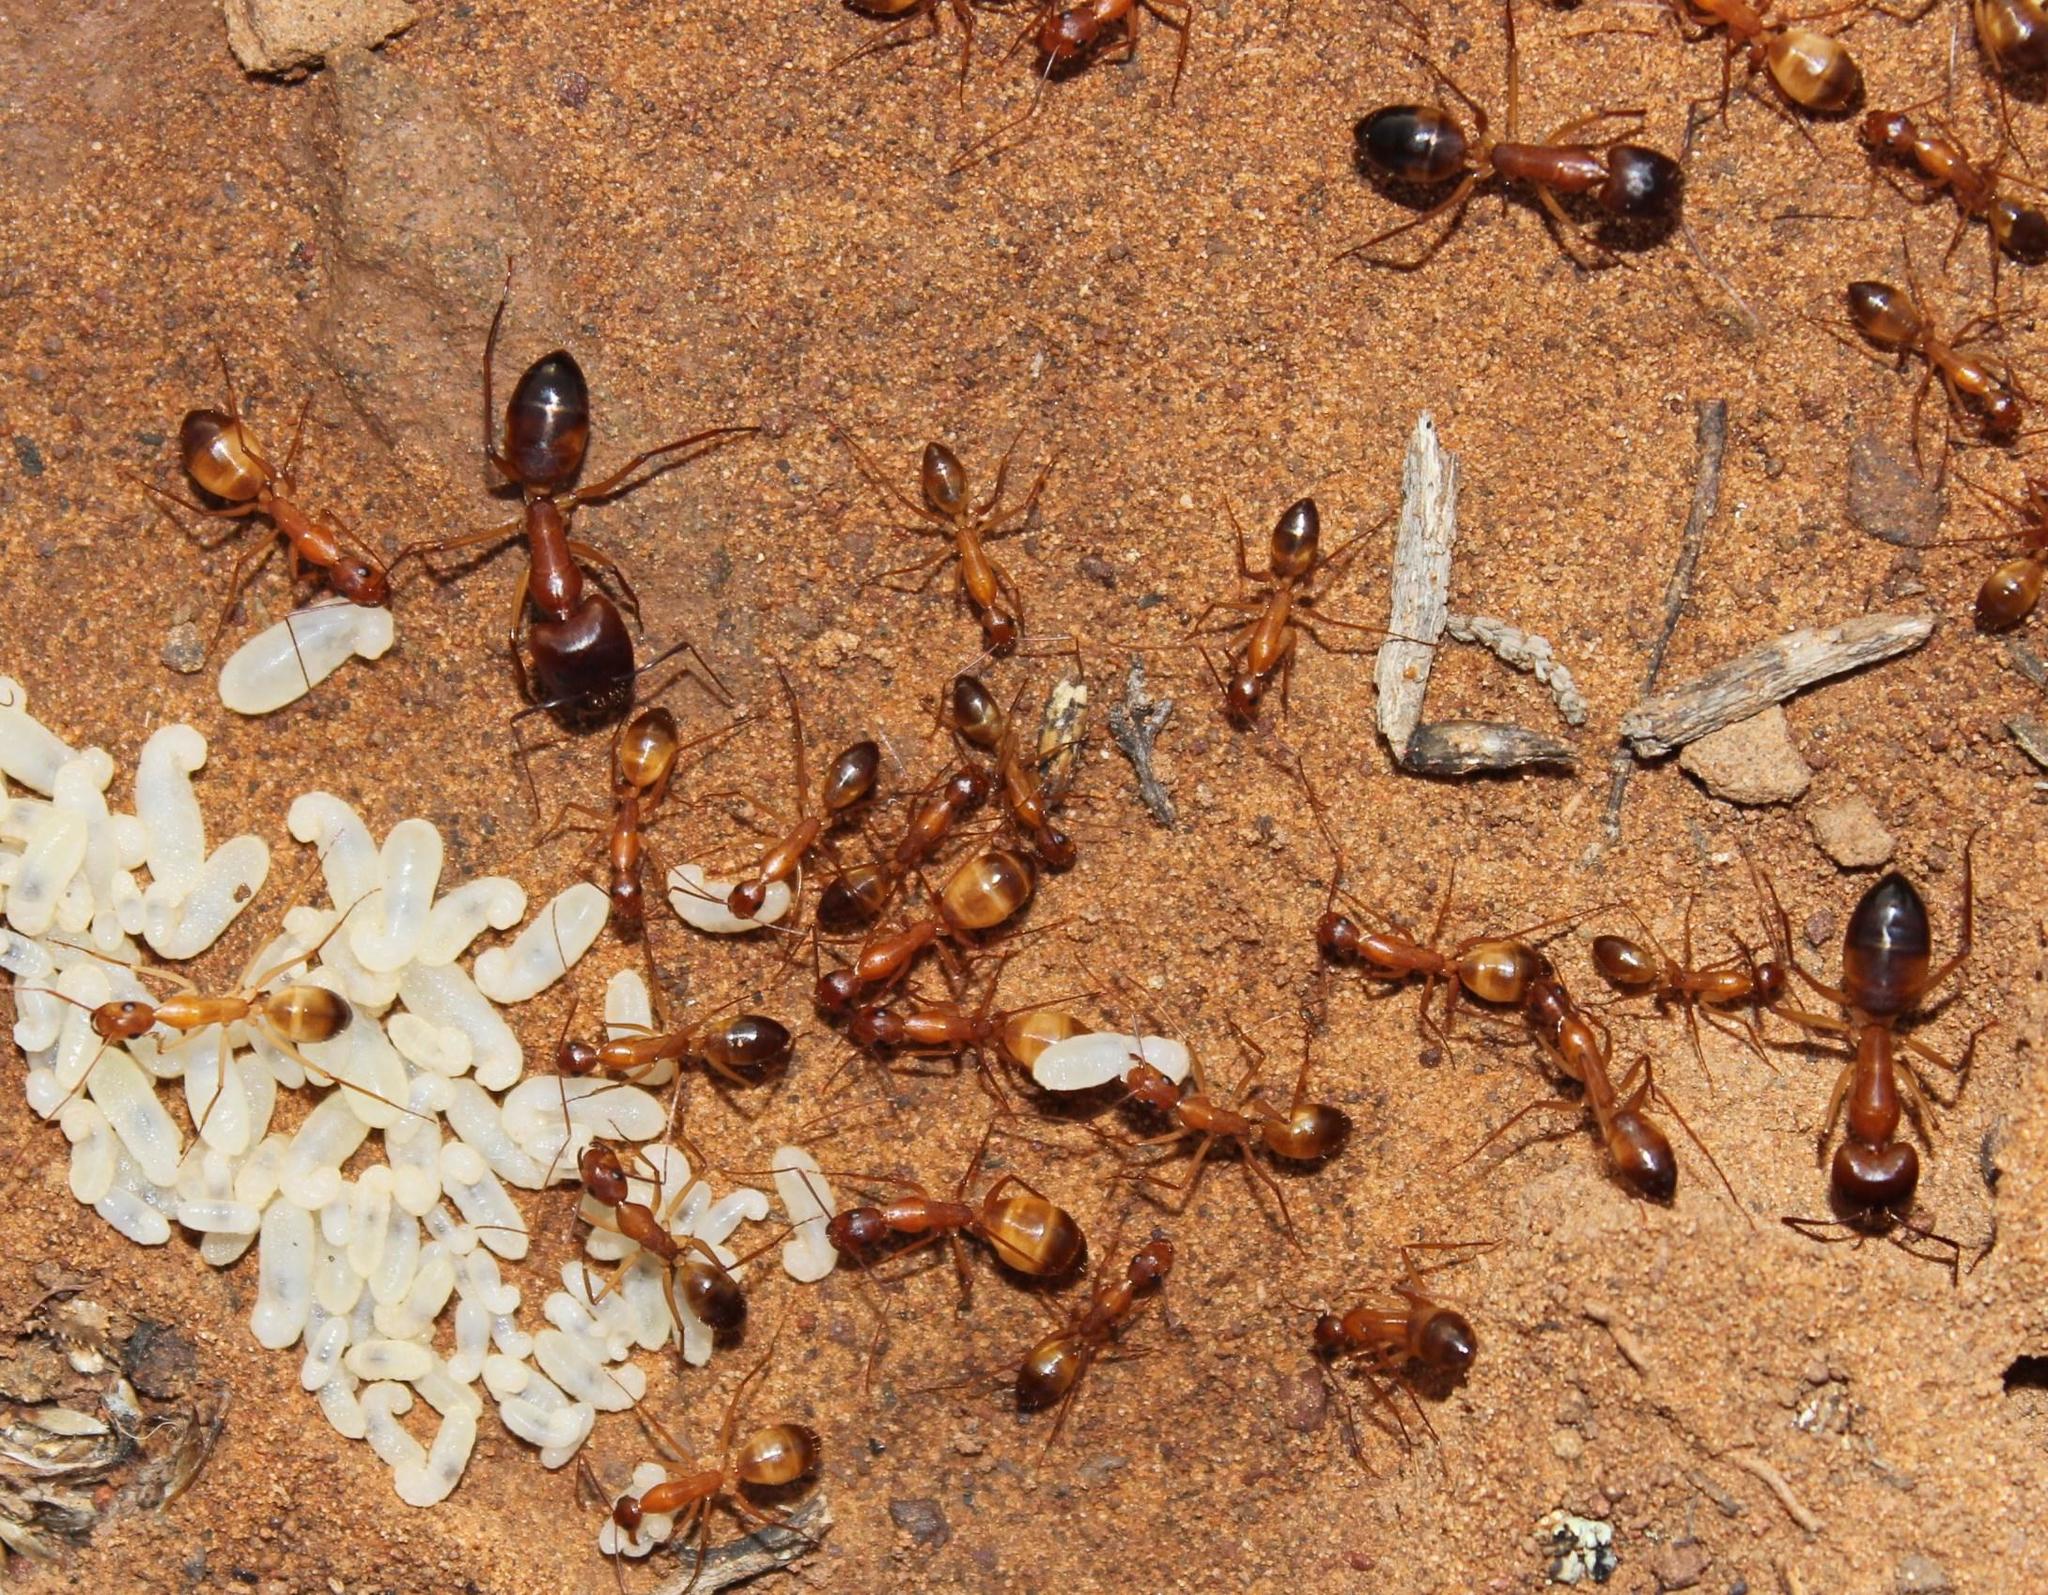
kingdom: Animalia
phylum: Arthropoda
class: Insecta
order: Hymenoptera
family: Formicidae
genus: Camponotus
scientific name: Camponotus cuneiscapus
